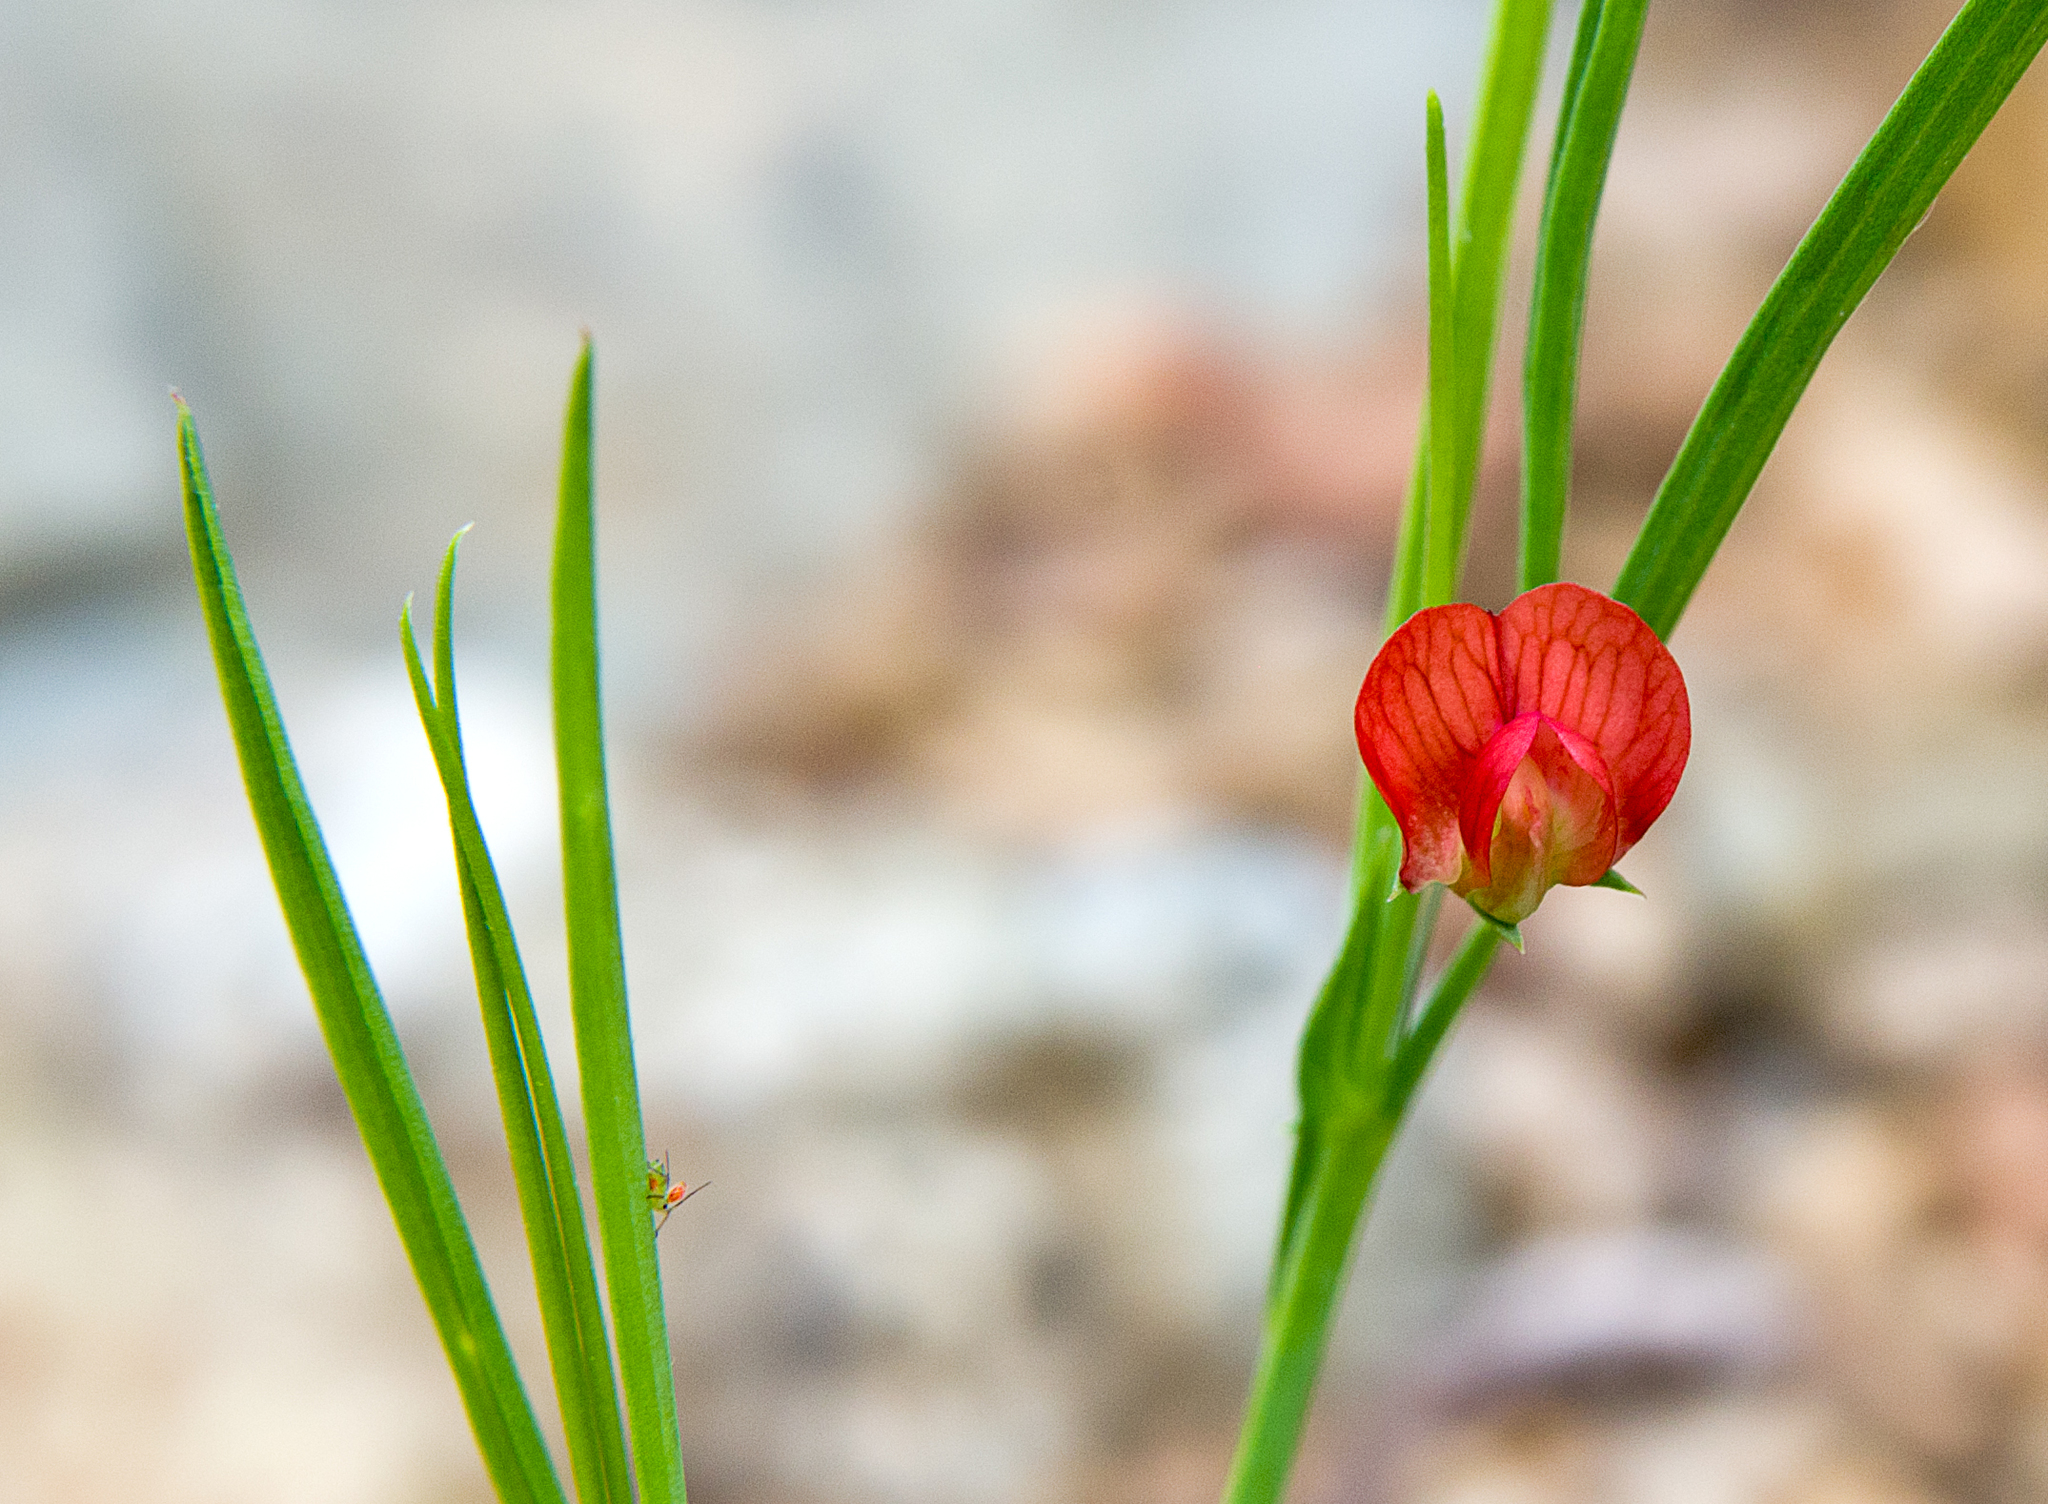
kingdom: Plantae
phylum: Tracheophyta
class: Magnoliopsida
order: Fabales
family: Fabaceae
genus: Lathyrus
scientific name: Lathyrus cicera
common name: Red vetchling
